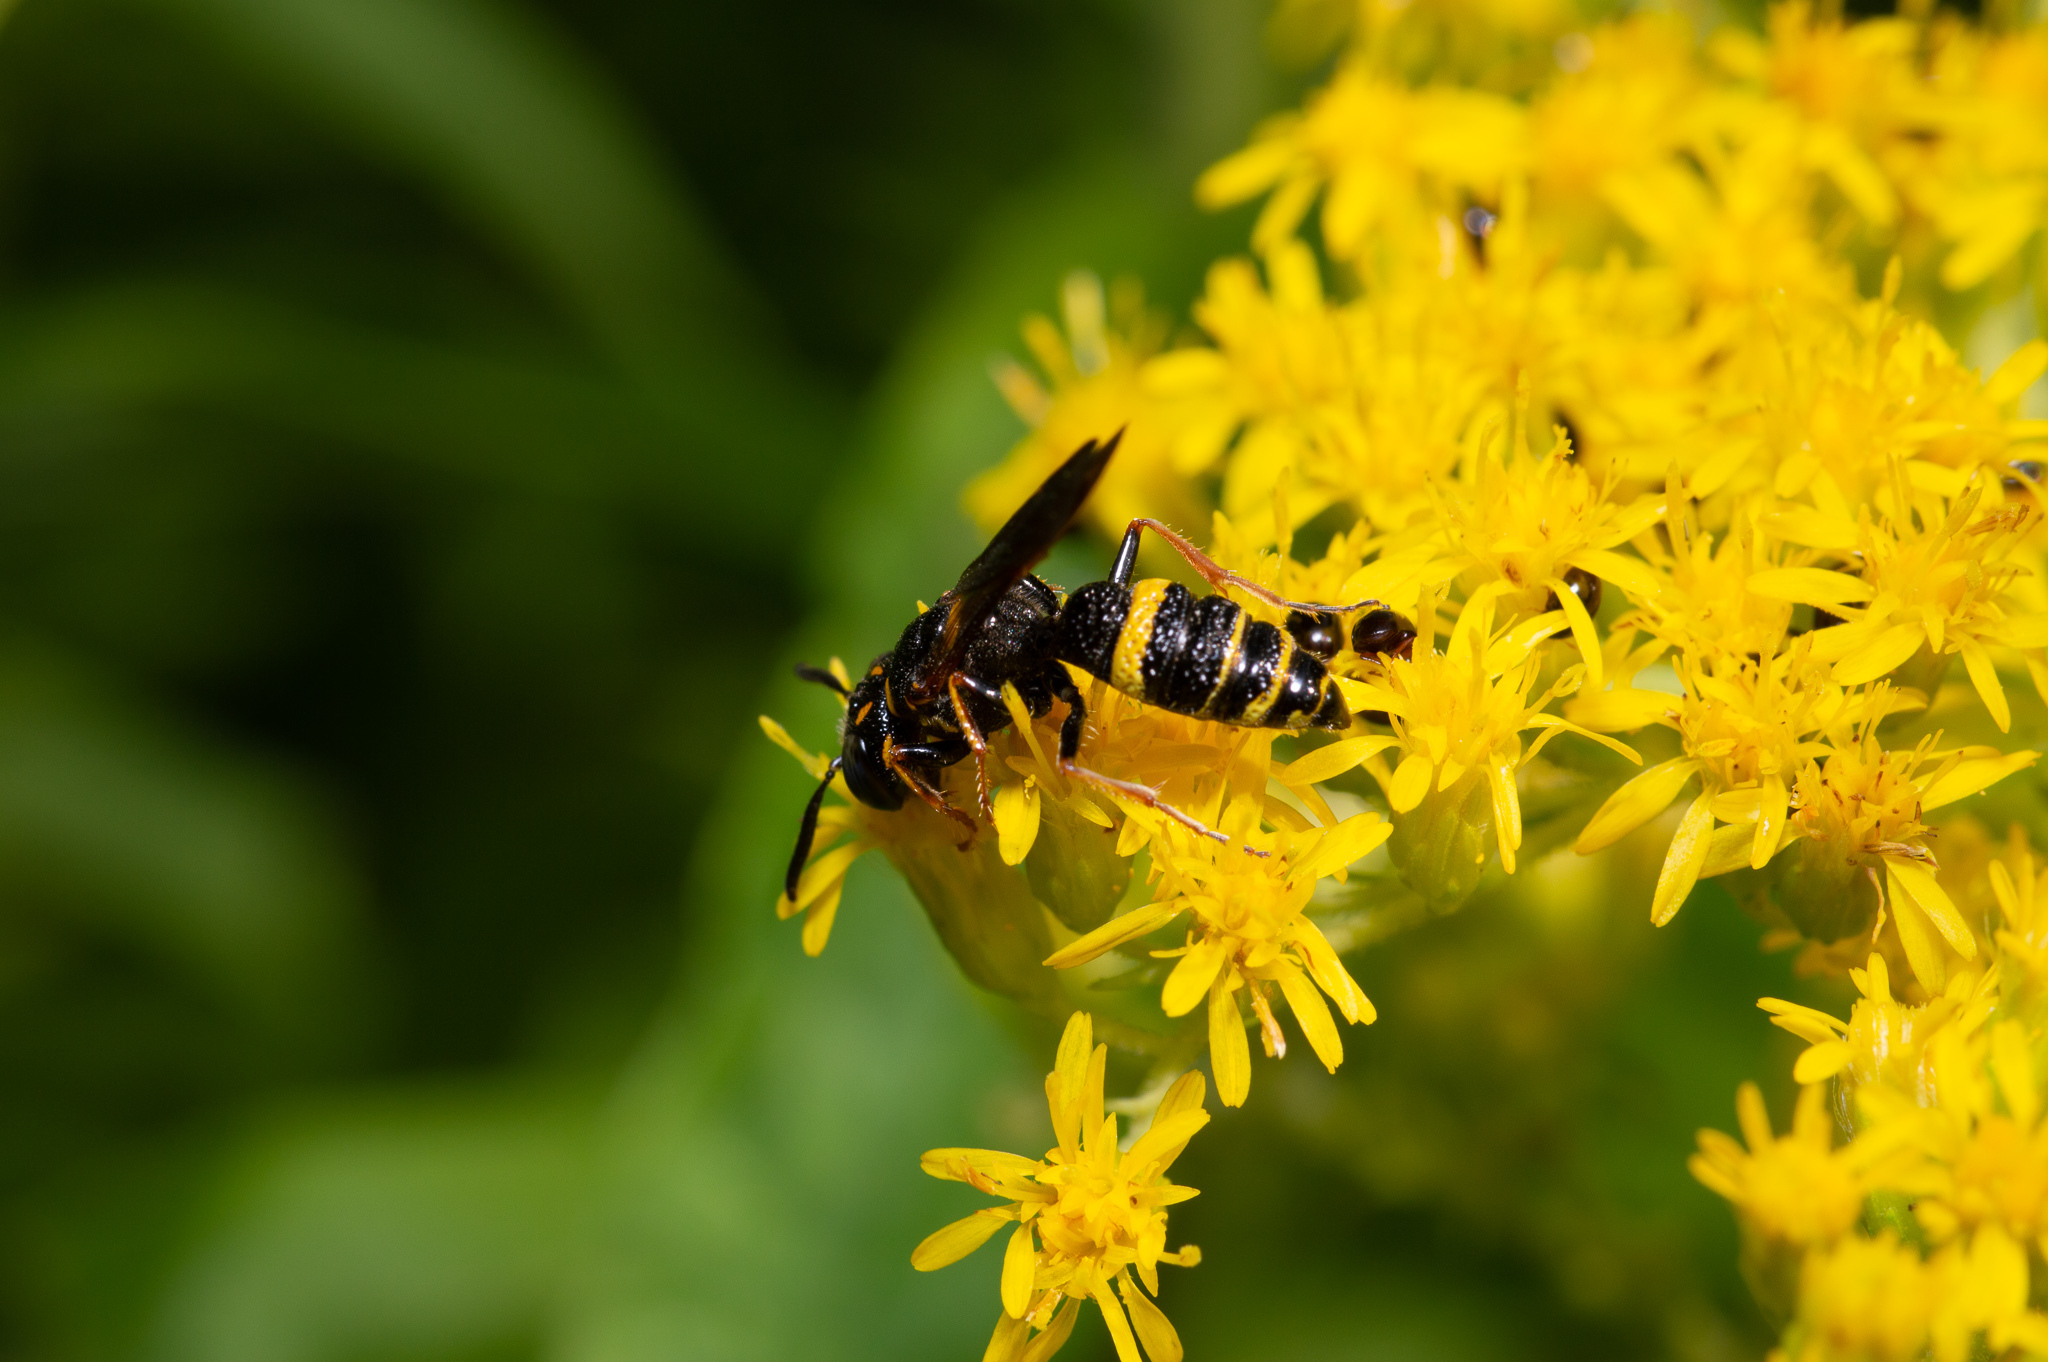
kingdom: Animalia
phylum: Arthropoda
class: Insecta
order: Hymenoptera
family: Crabronidae
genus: Philanthus
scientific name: Philanthus gibbosus
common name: Humped beewolf
